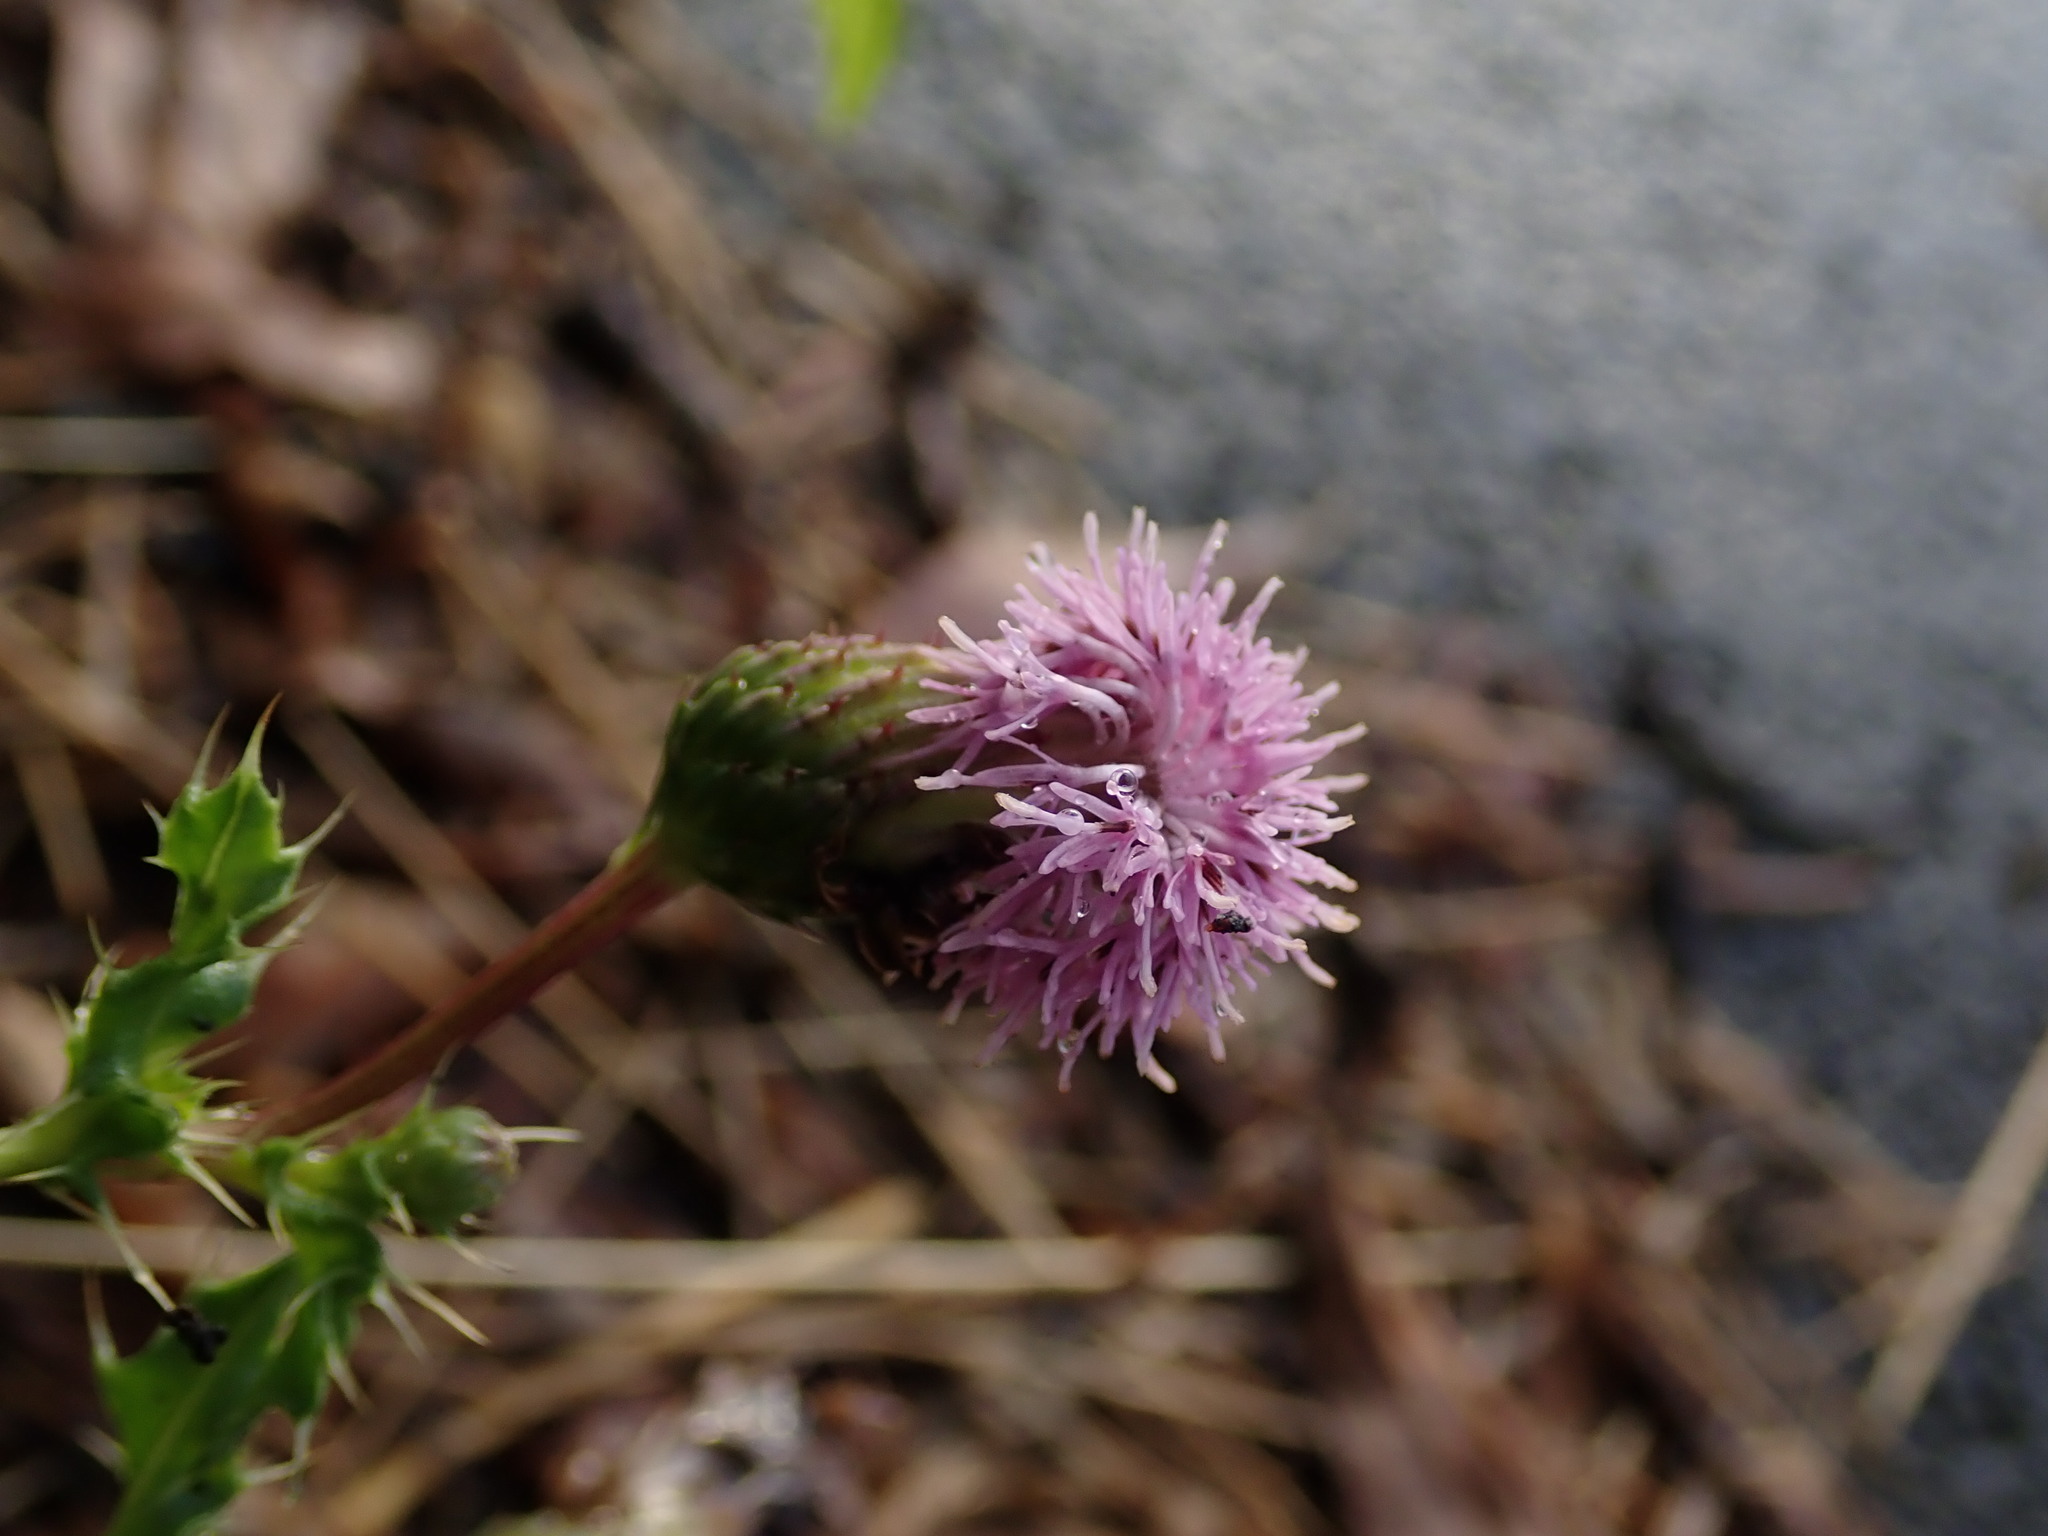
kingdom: Plantae
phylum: Tracheophyta
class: Magnoliopsida
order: Asterales
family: Asteraceae
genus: Cirsium
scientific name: Cirsium arvense
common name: Creeping thistle
